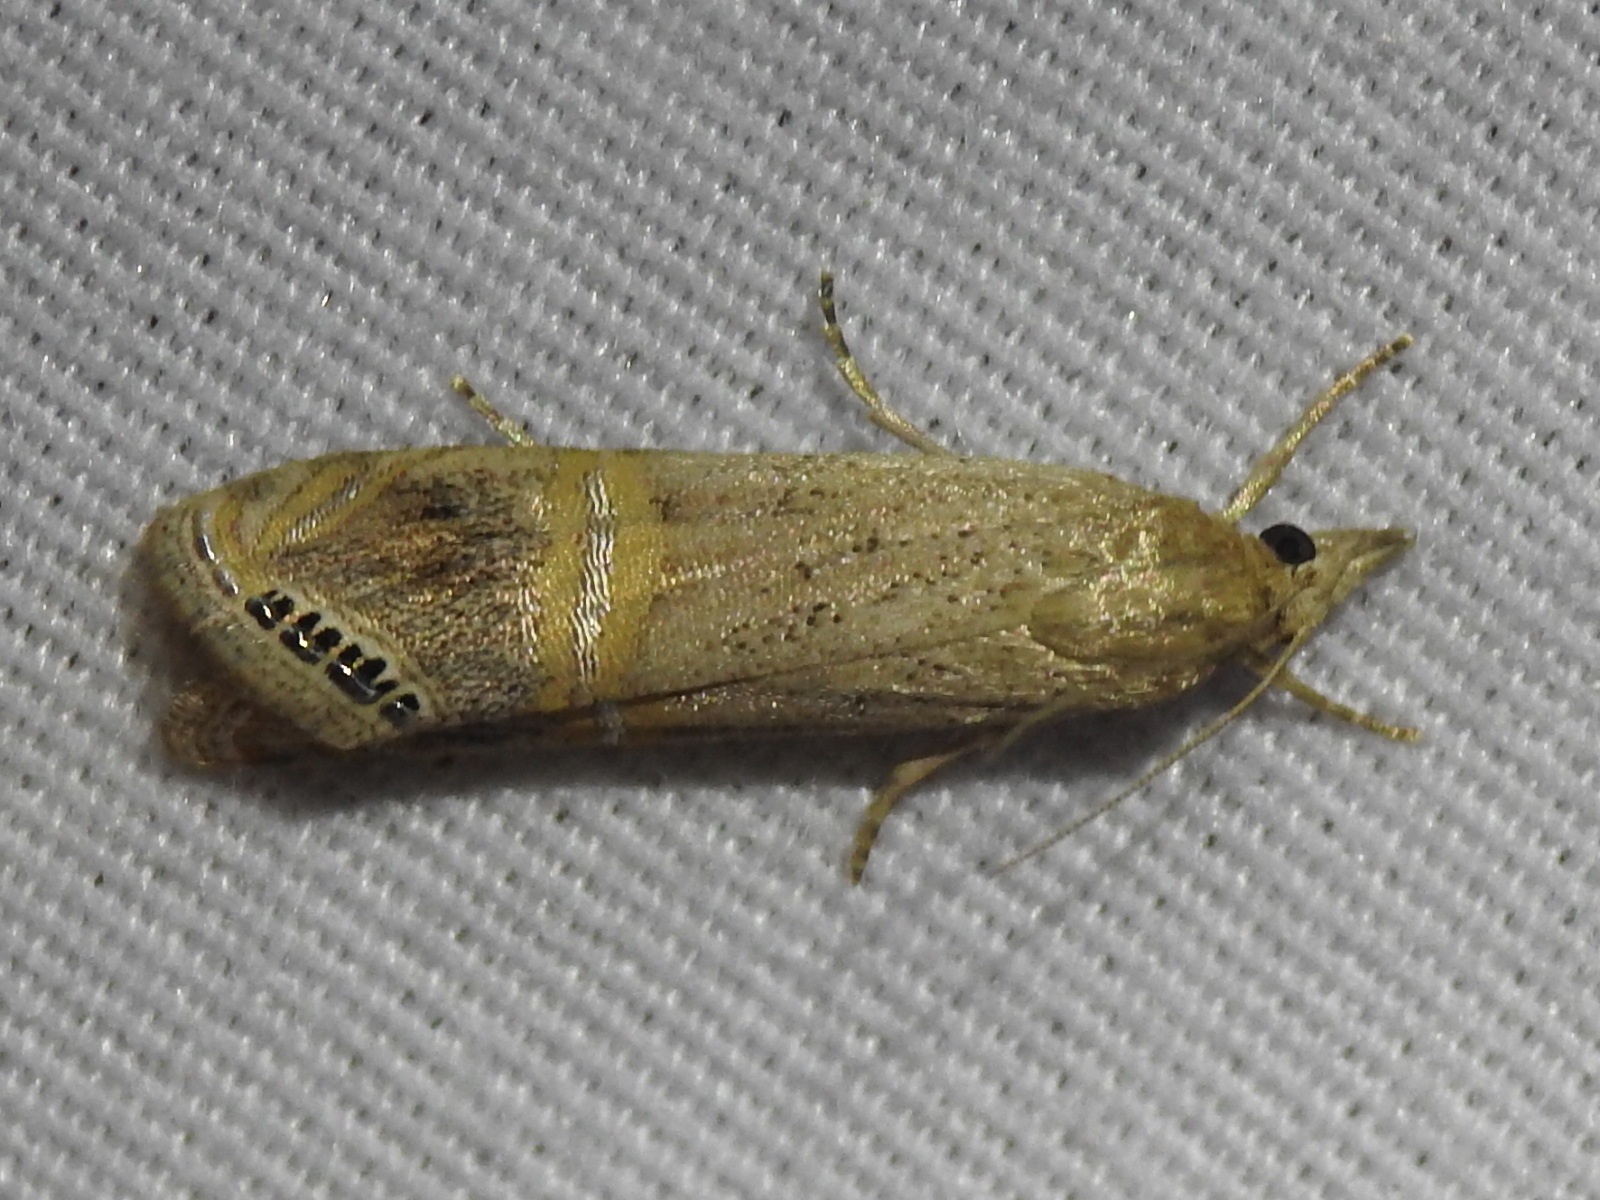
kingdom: Animalia
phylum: Arthropoda
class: Insecta
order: Lepidoptera
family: Crambidae
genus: Euchromius
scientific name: Euchromius ocellea
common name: Necklace veneer moth
